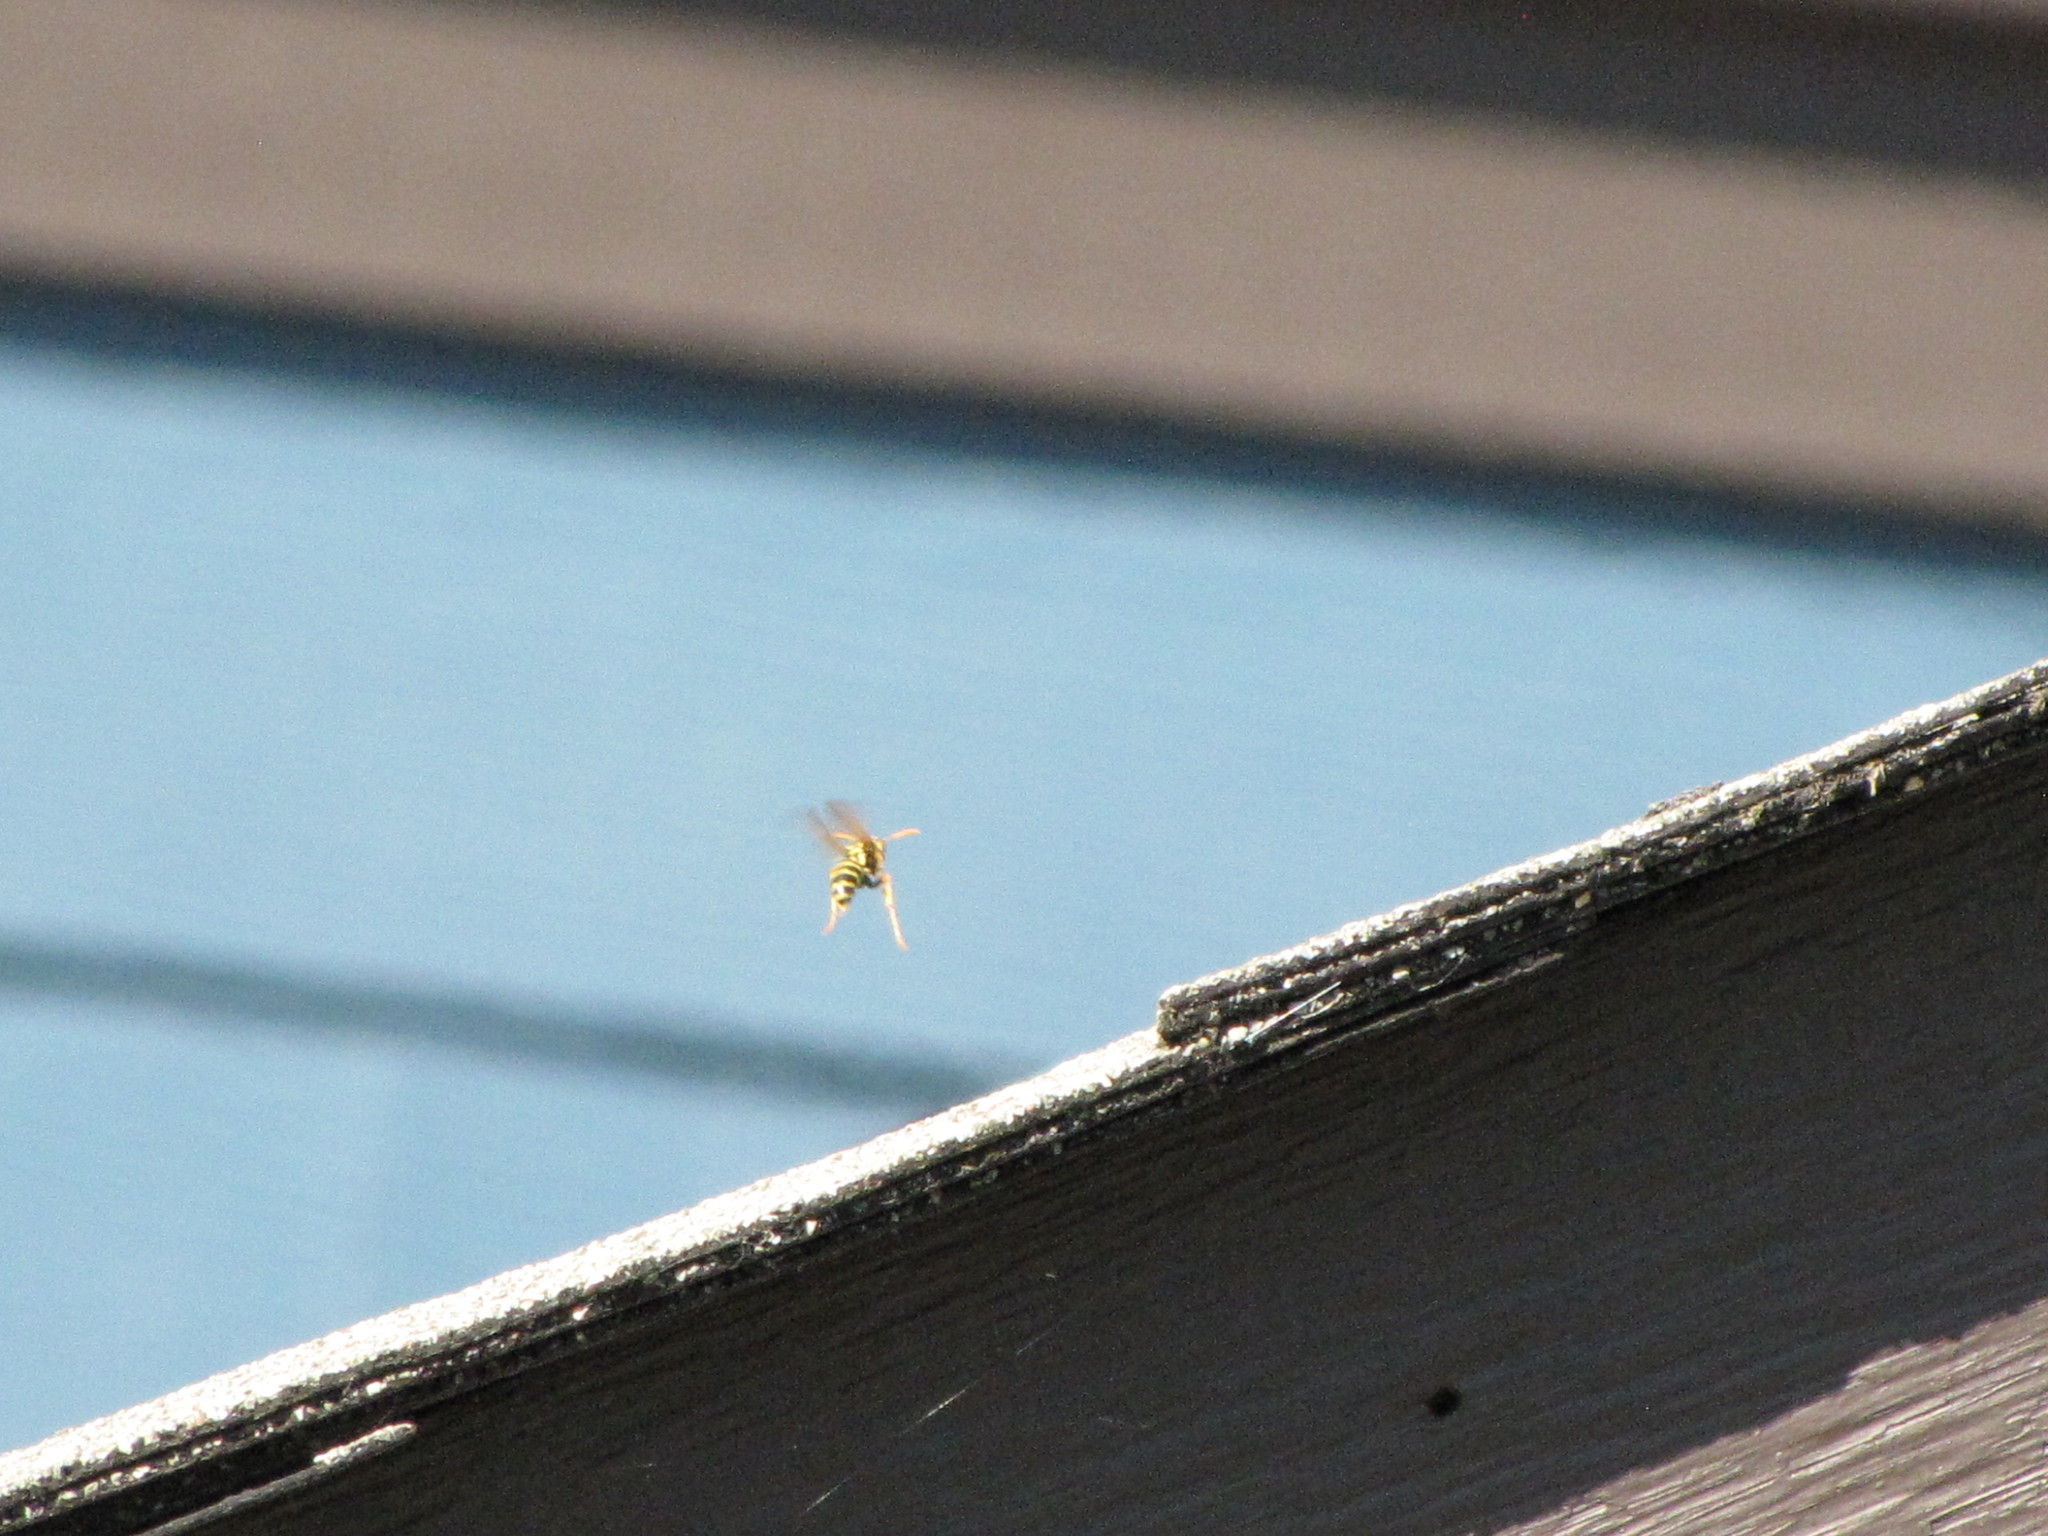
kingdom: Animalia
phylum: Arthropoda
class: Insecta
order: Hymenoptera
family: Eumenidae
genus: Polistes
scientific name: Polistes dominula
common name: Paper wasp
